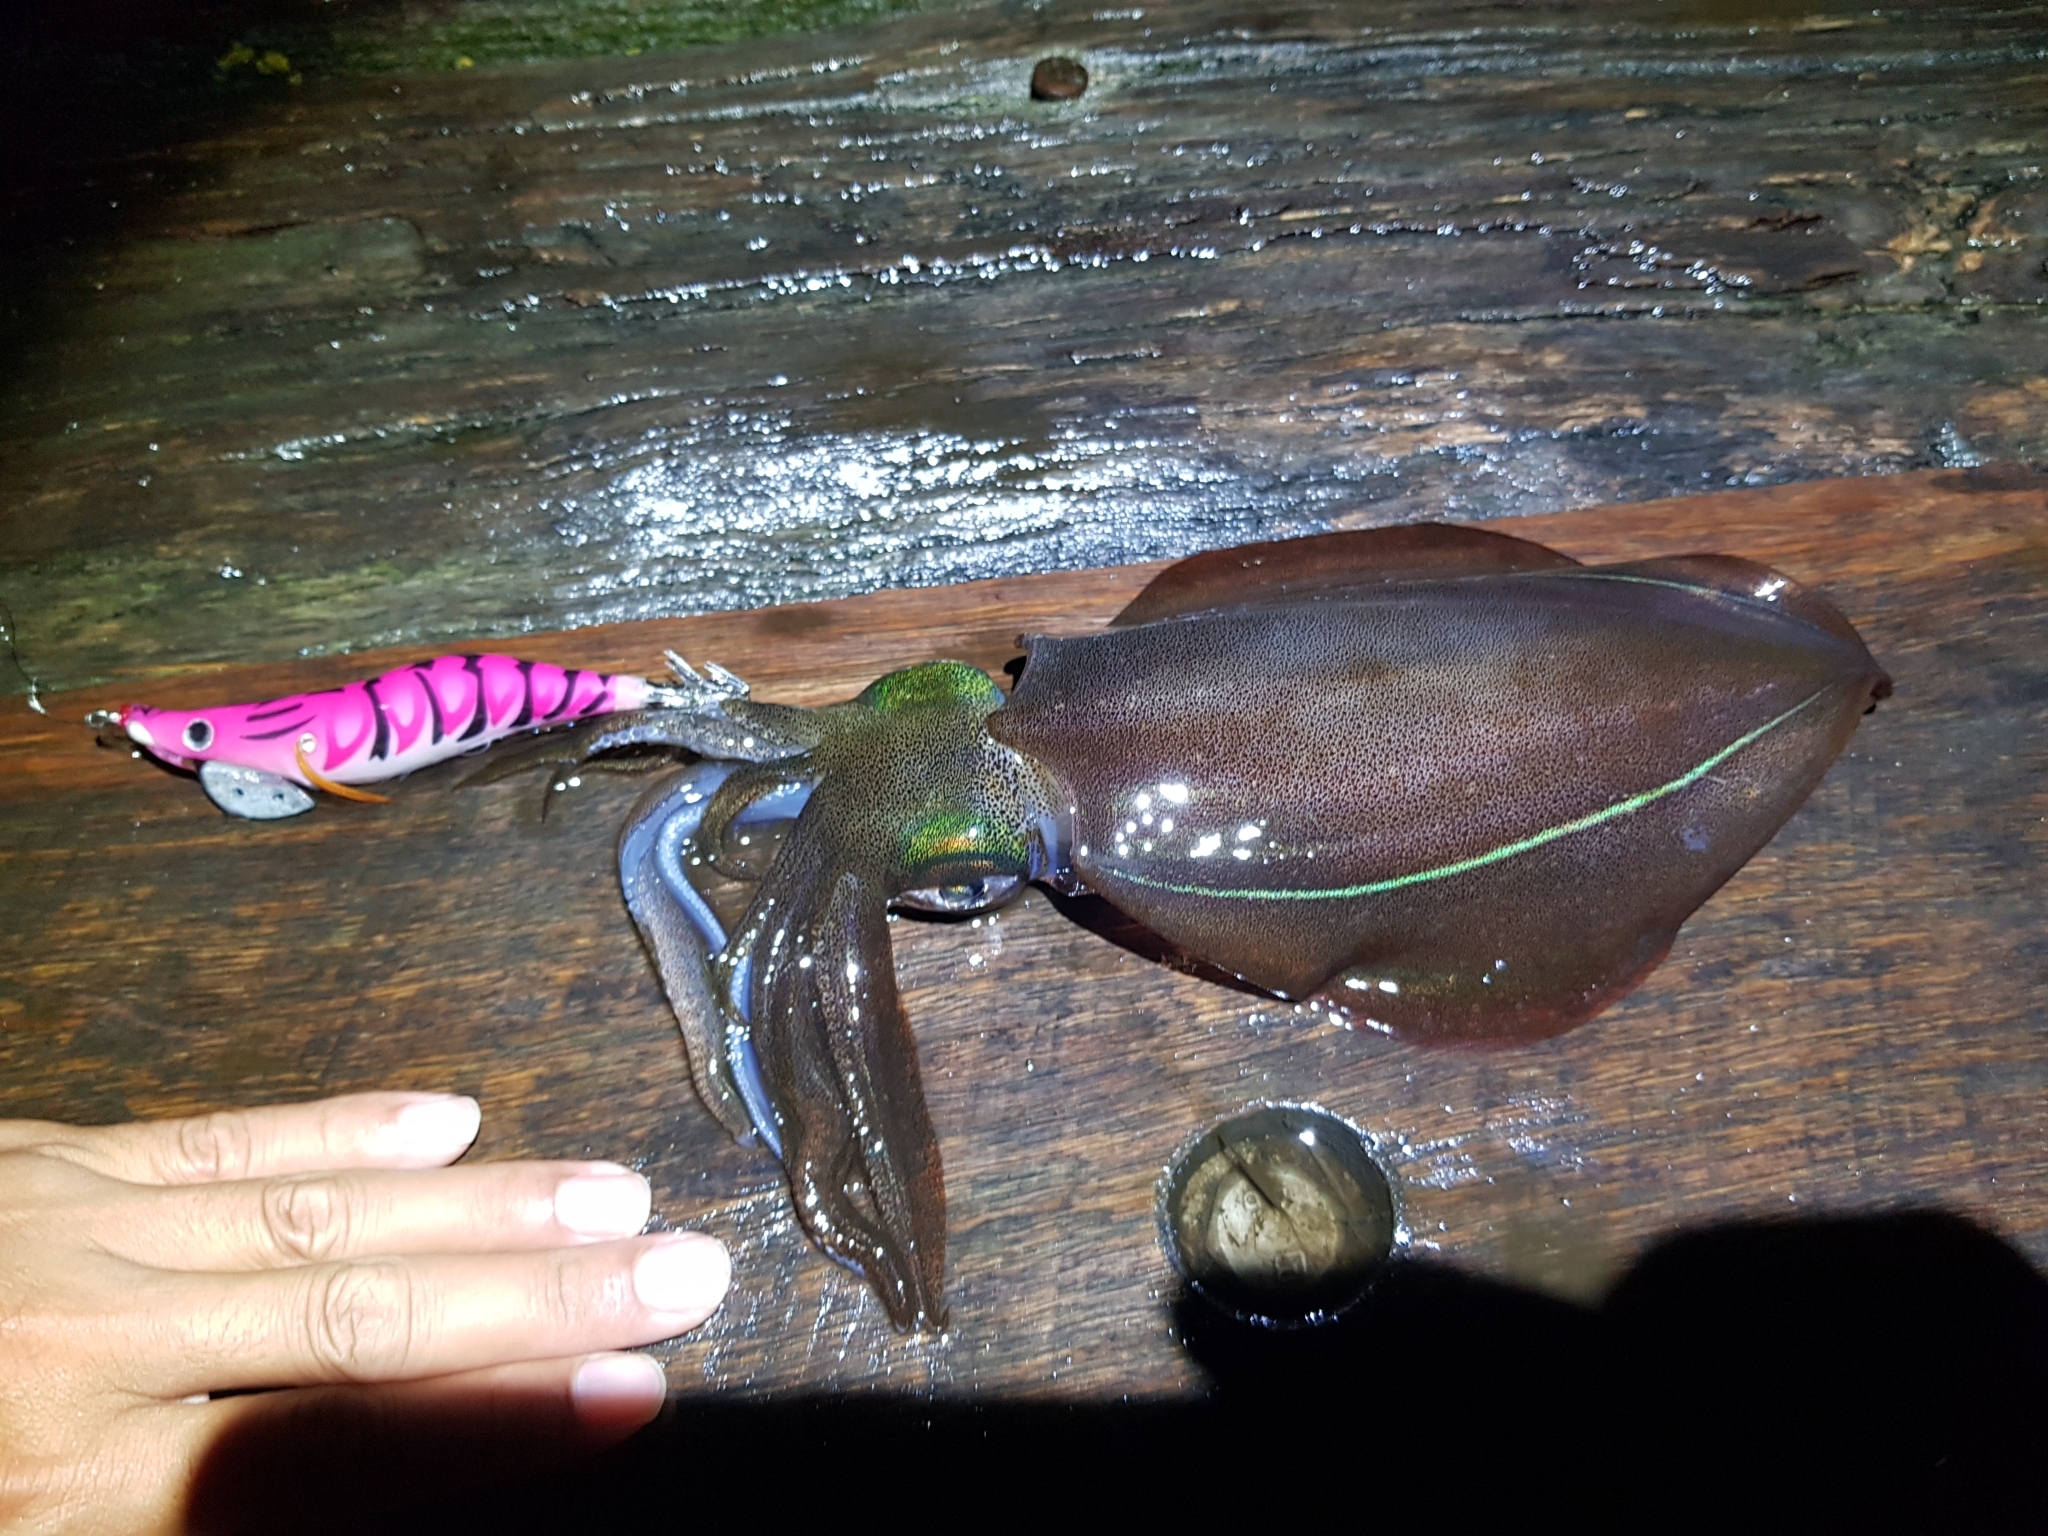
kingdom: Animalia
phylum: Mollusca
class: Cephalopoda
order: Myopsida
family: Loliginidae
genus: Sepioteuthis
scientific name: Sepioteuthis australis
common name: Southern reef squid
